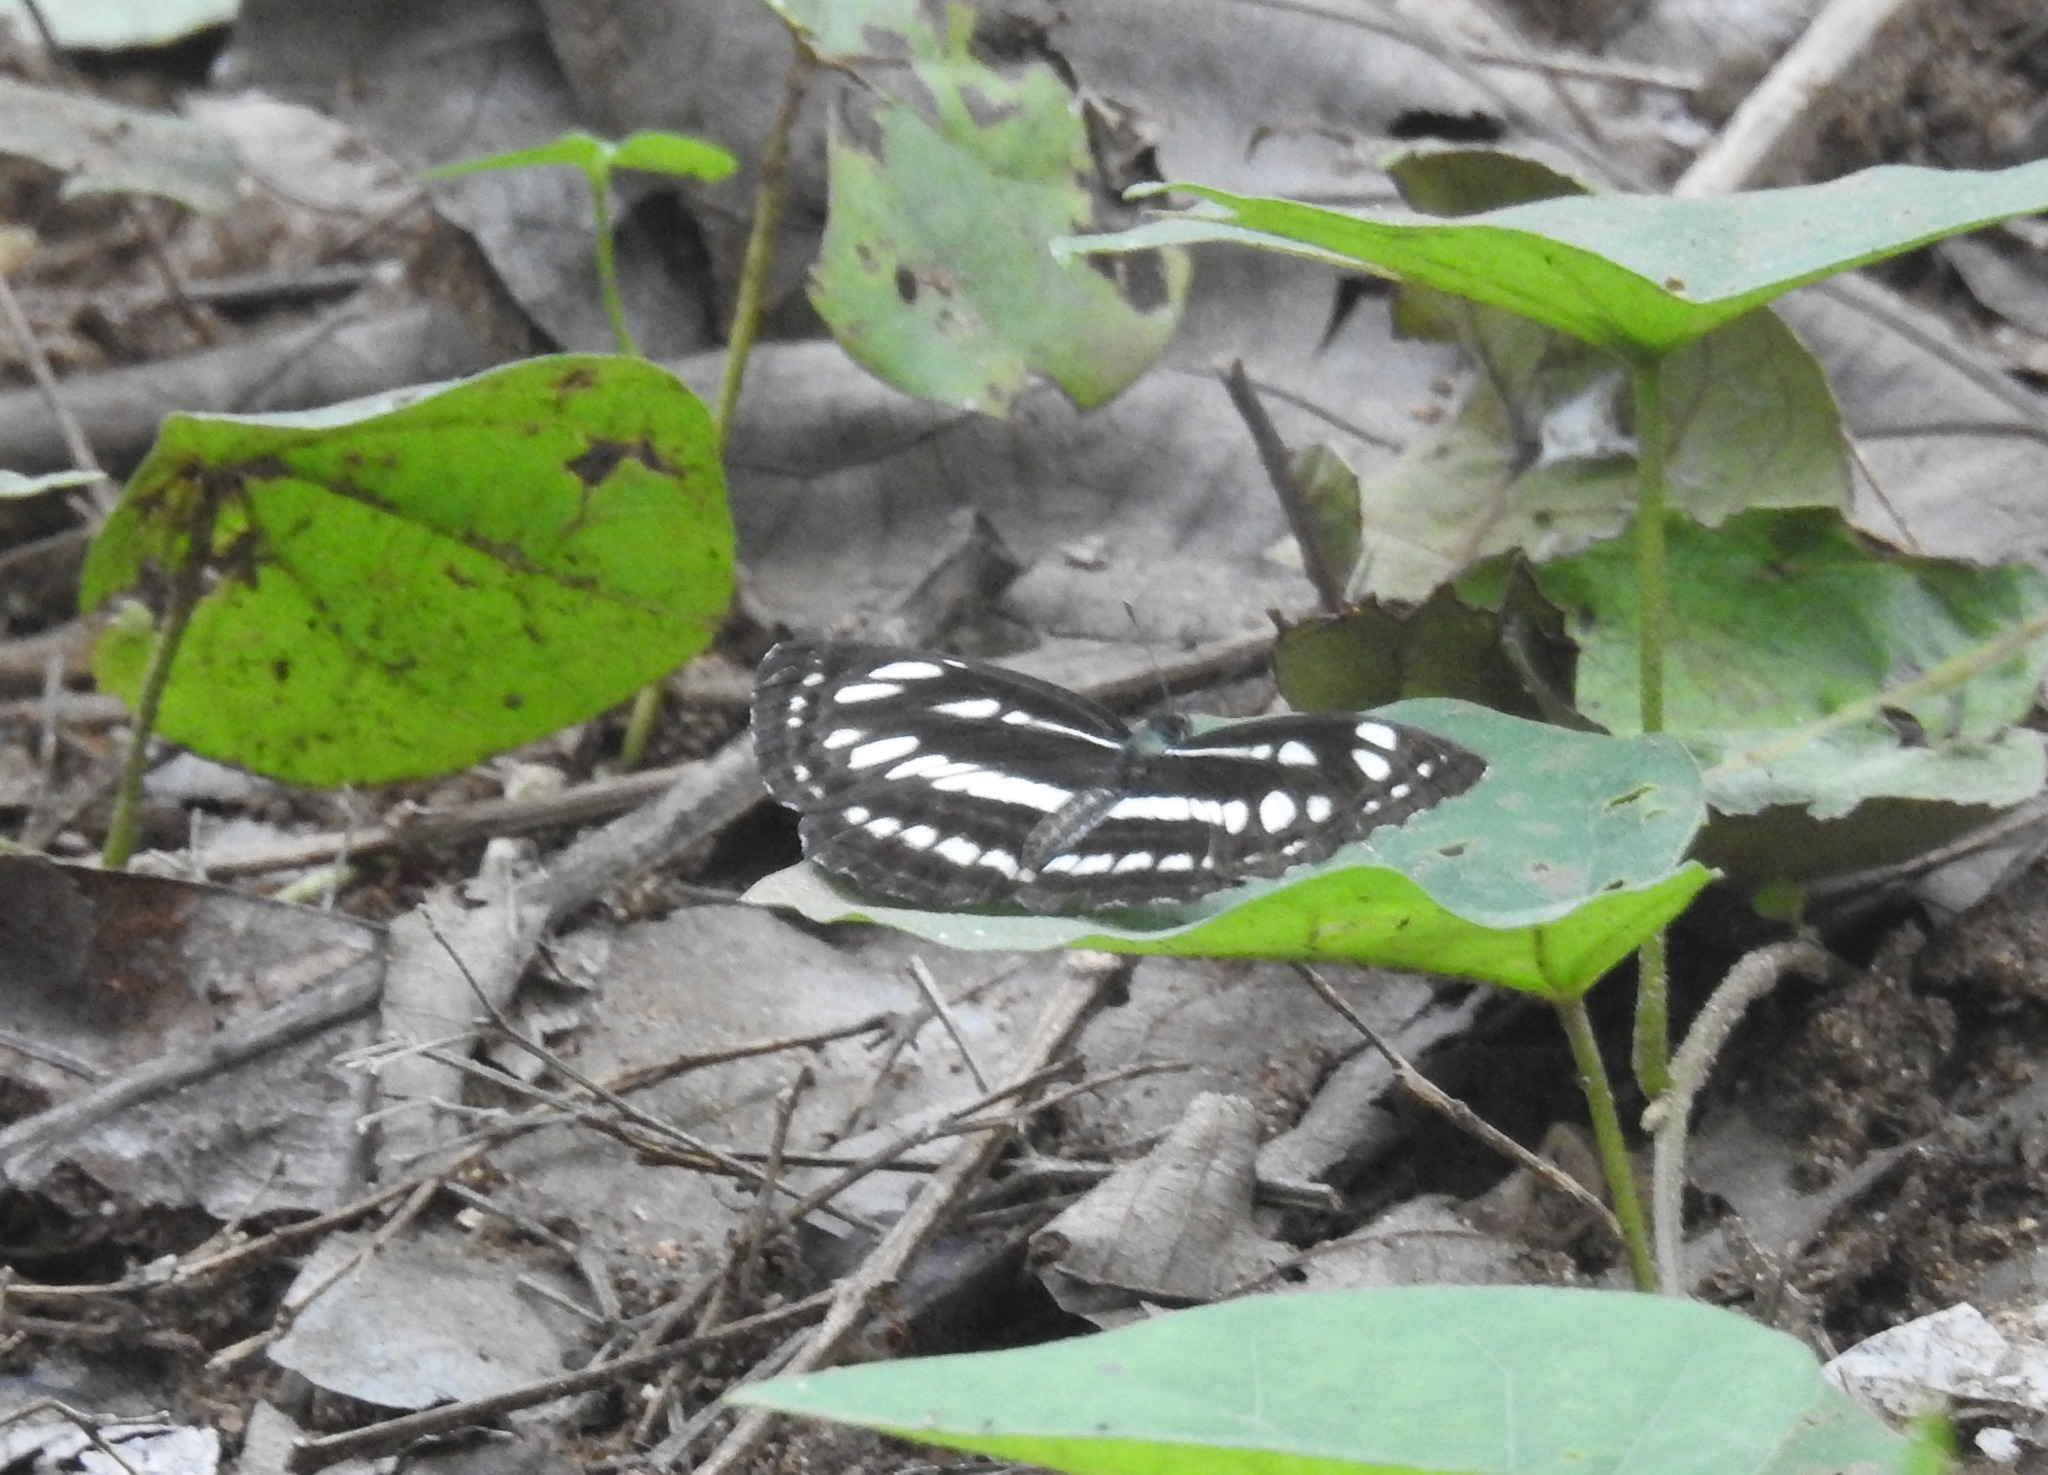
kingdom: Animalia
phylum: Arthropoda
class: Insecta
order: Lepidoptera
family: Nymphalidae
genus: Neptis
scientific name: Neptis hylas
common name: Common sailer
